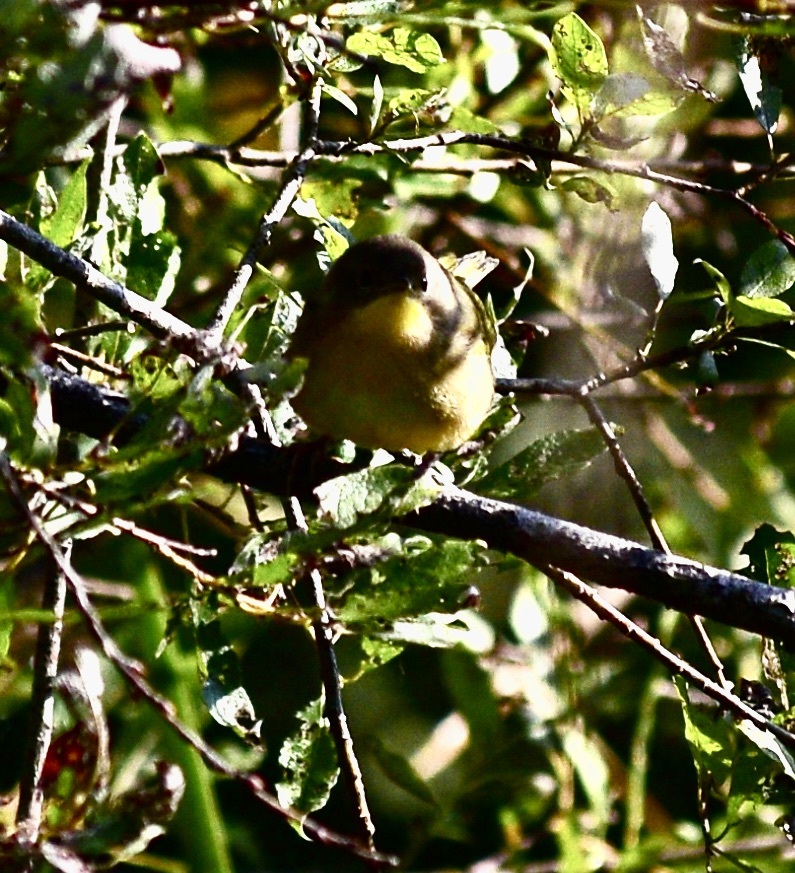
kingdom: Animalia
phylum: Chordata
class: Aves
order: Passeriformes
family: Parulidae
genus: Geothlypis
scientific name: Geothlypis trichas
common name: Common yellowthroat
